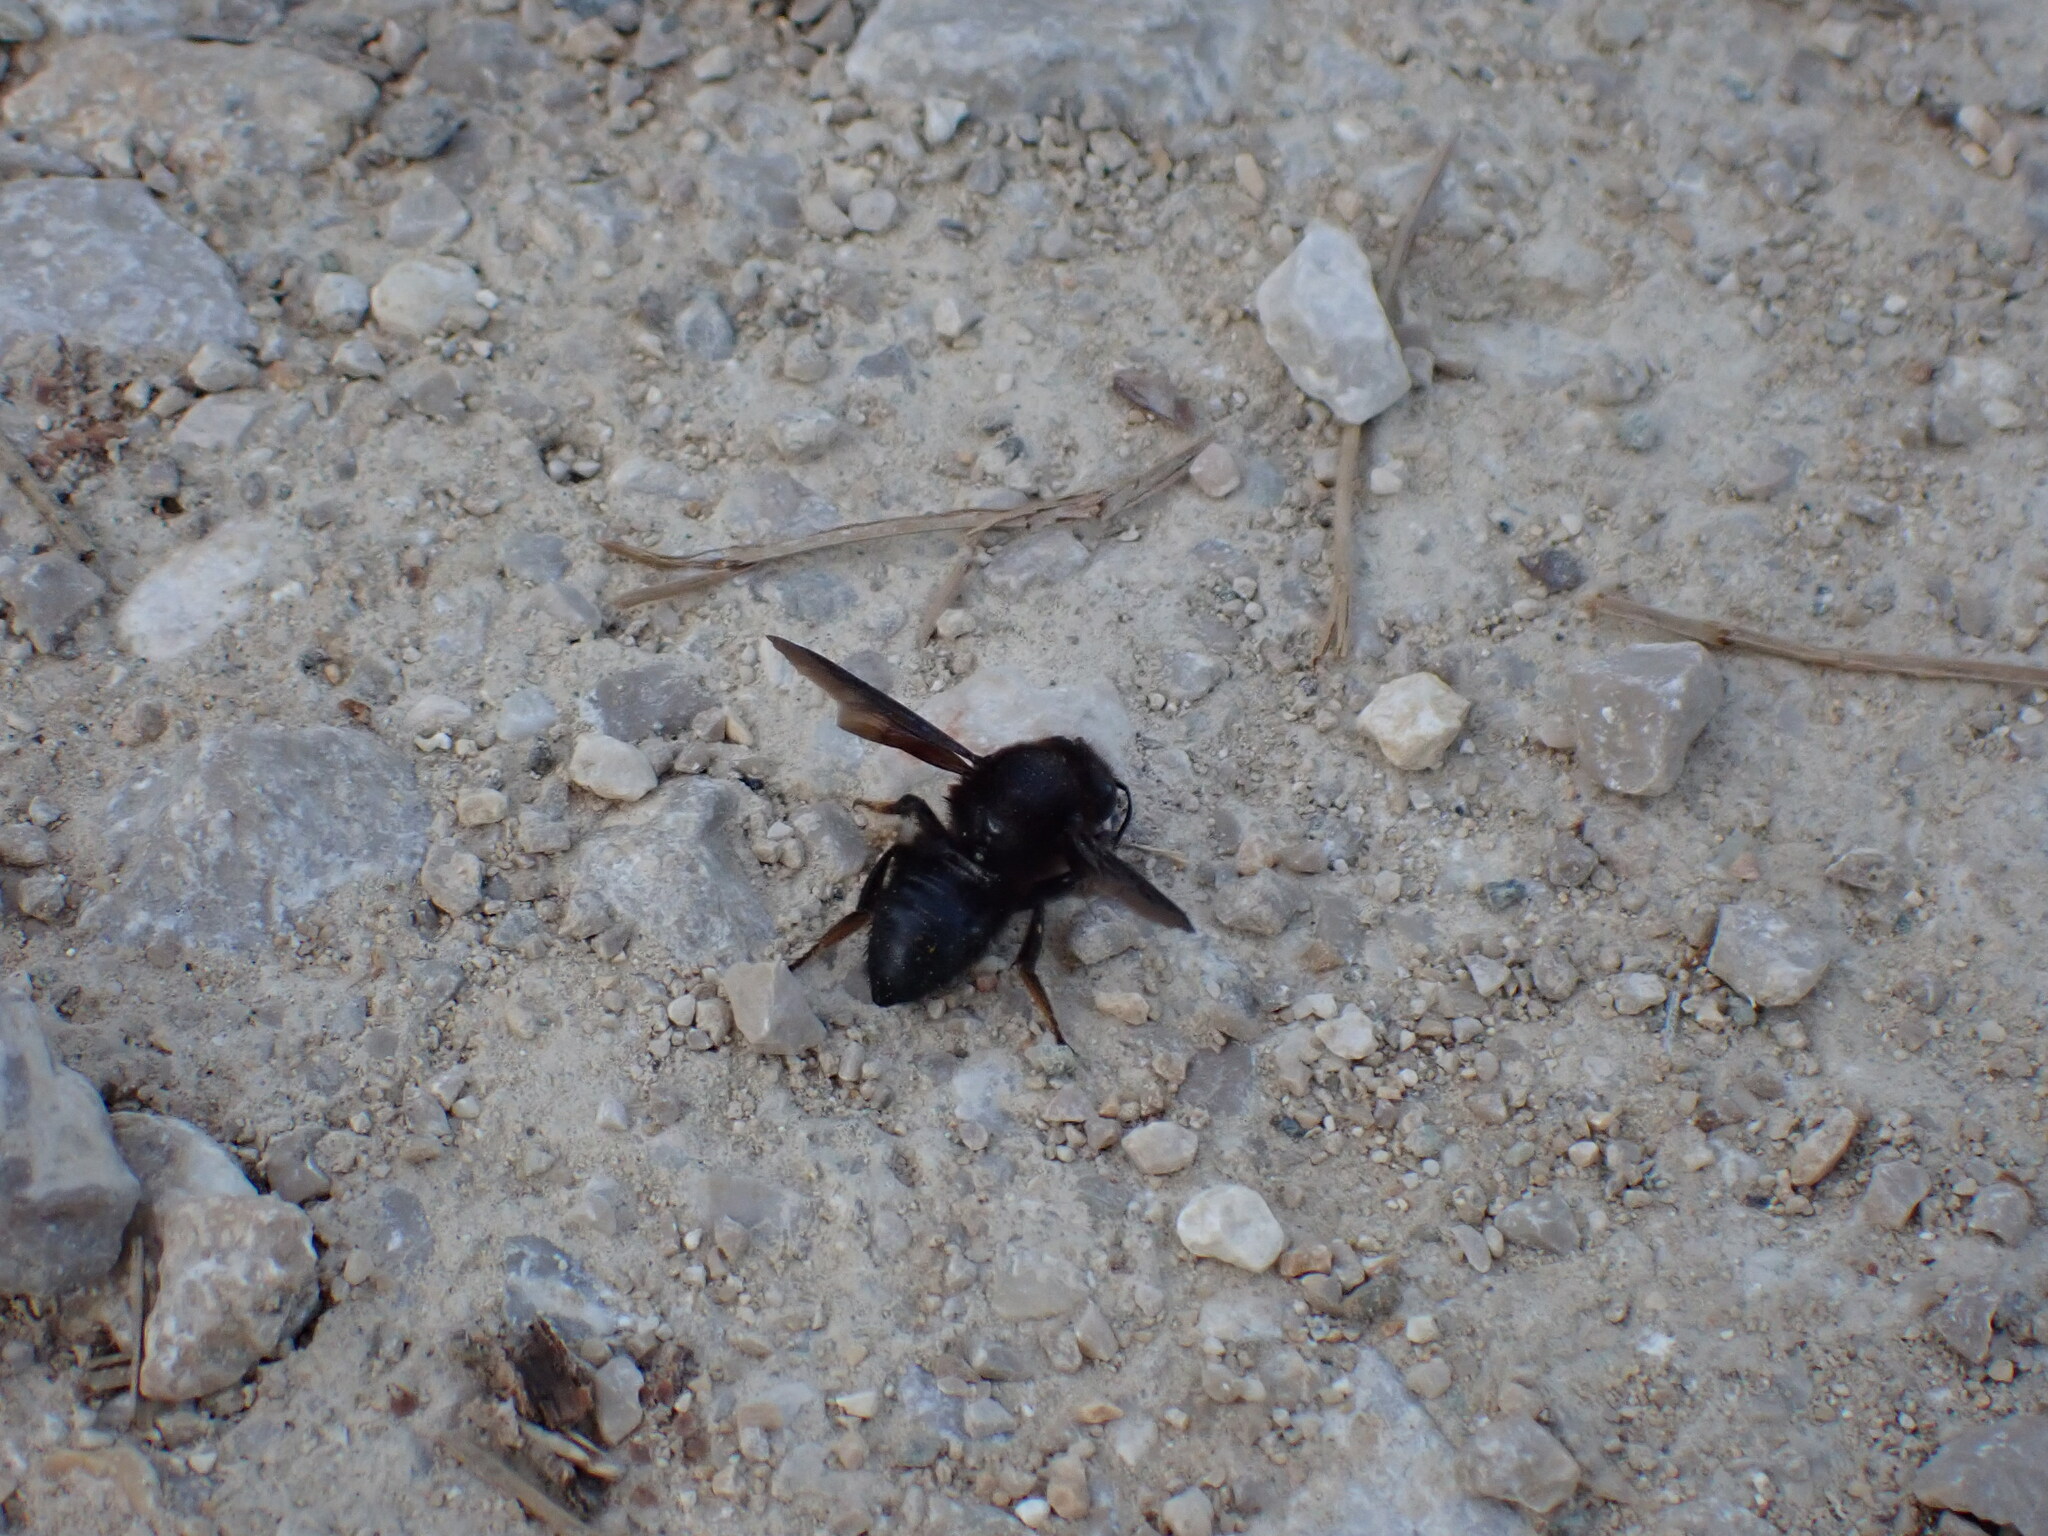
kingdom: Animalia
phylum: Arthropoda
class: Insecta
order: Hymenoptera
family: Megachilidae
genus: Megachile
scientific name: Megachile parietina
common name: Black mud bee
